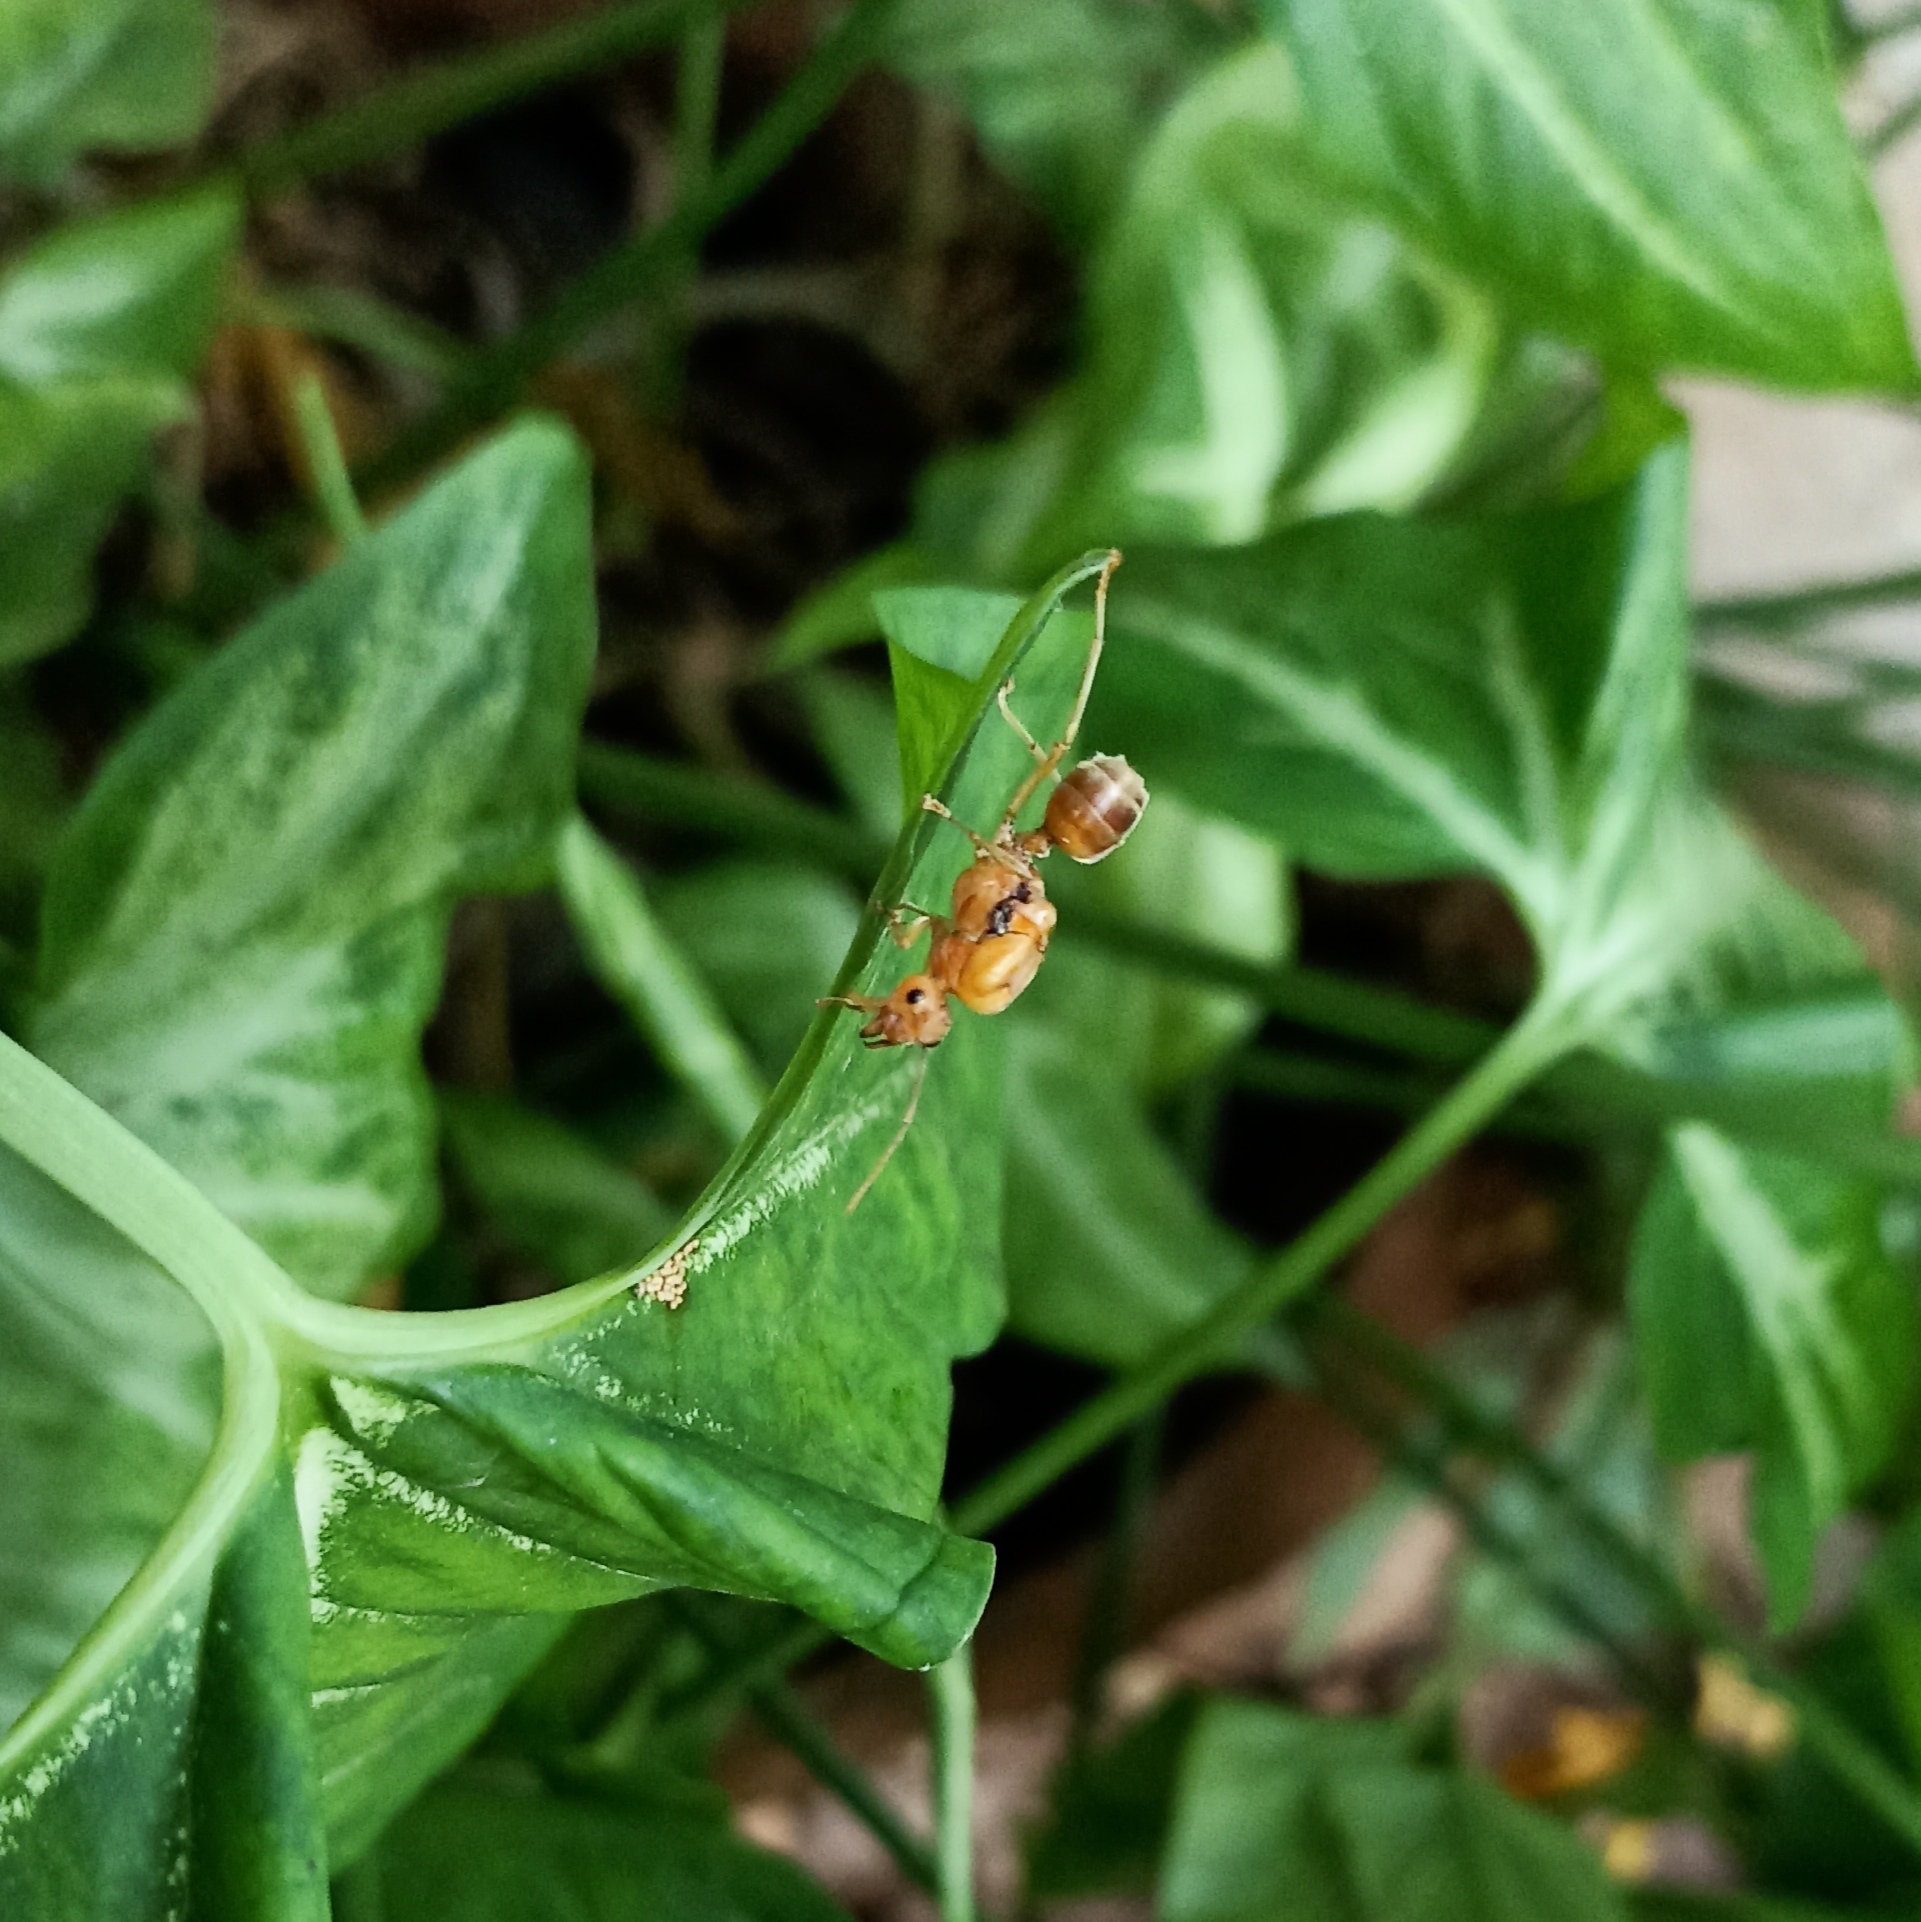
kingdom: Animalia
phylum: Arthropoda
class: Insecta
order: Hymenoptera
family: Formicidae
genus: Oecophylla
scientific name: Oecophylla smaragdina
